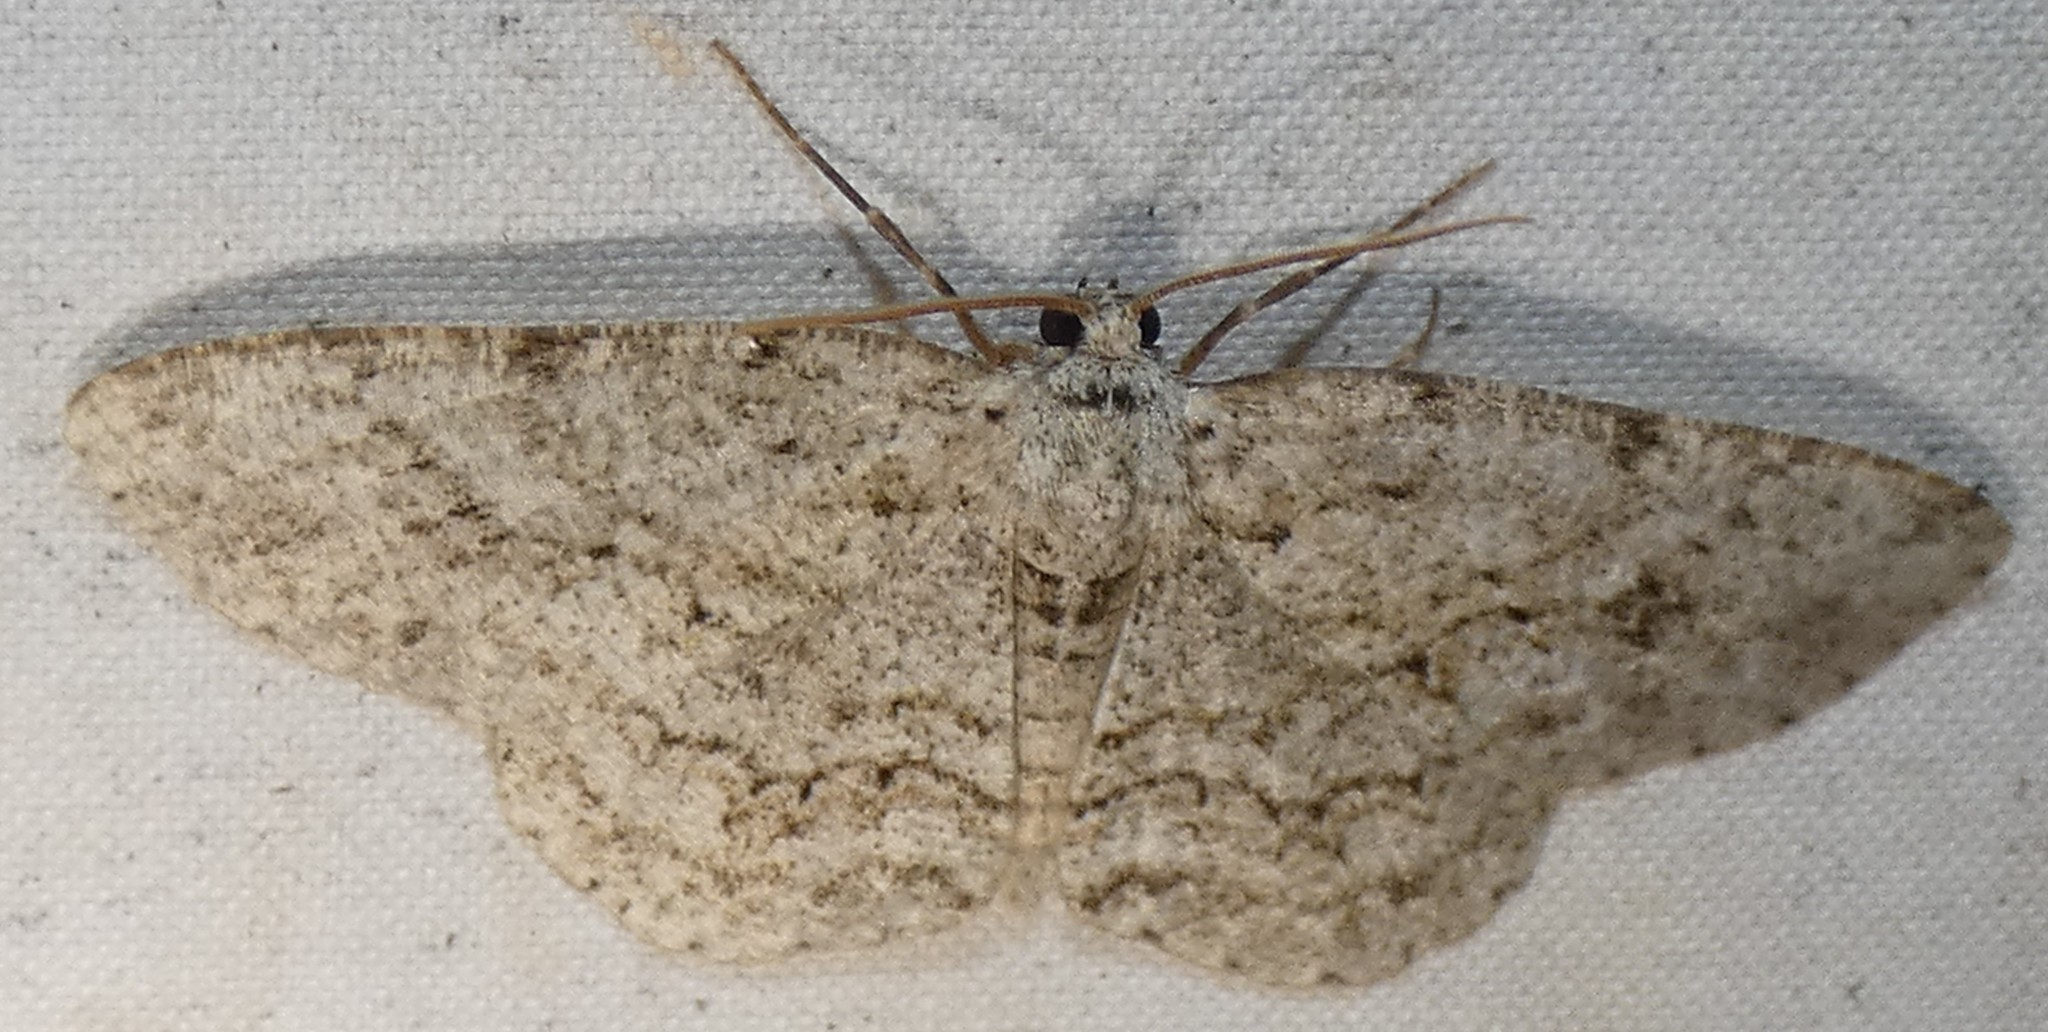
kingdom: Animalia
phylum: Arthropoda
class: Insecta
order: Lepidoptera
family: Geometridae
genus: Ectropis
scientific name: Ectropis crepuscularia
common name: Engrailed
